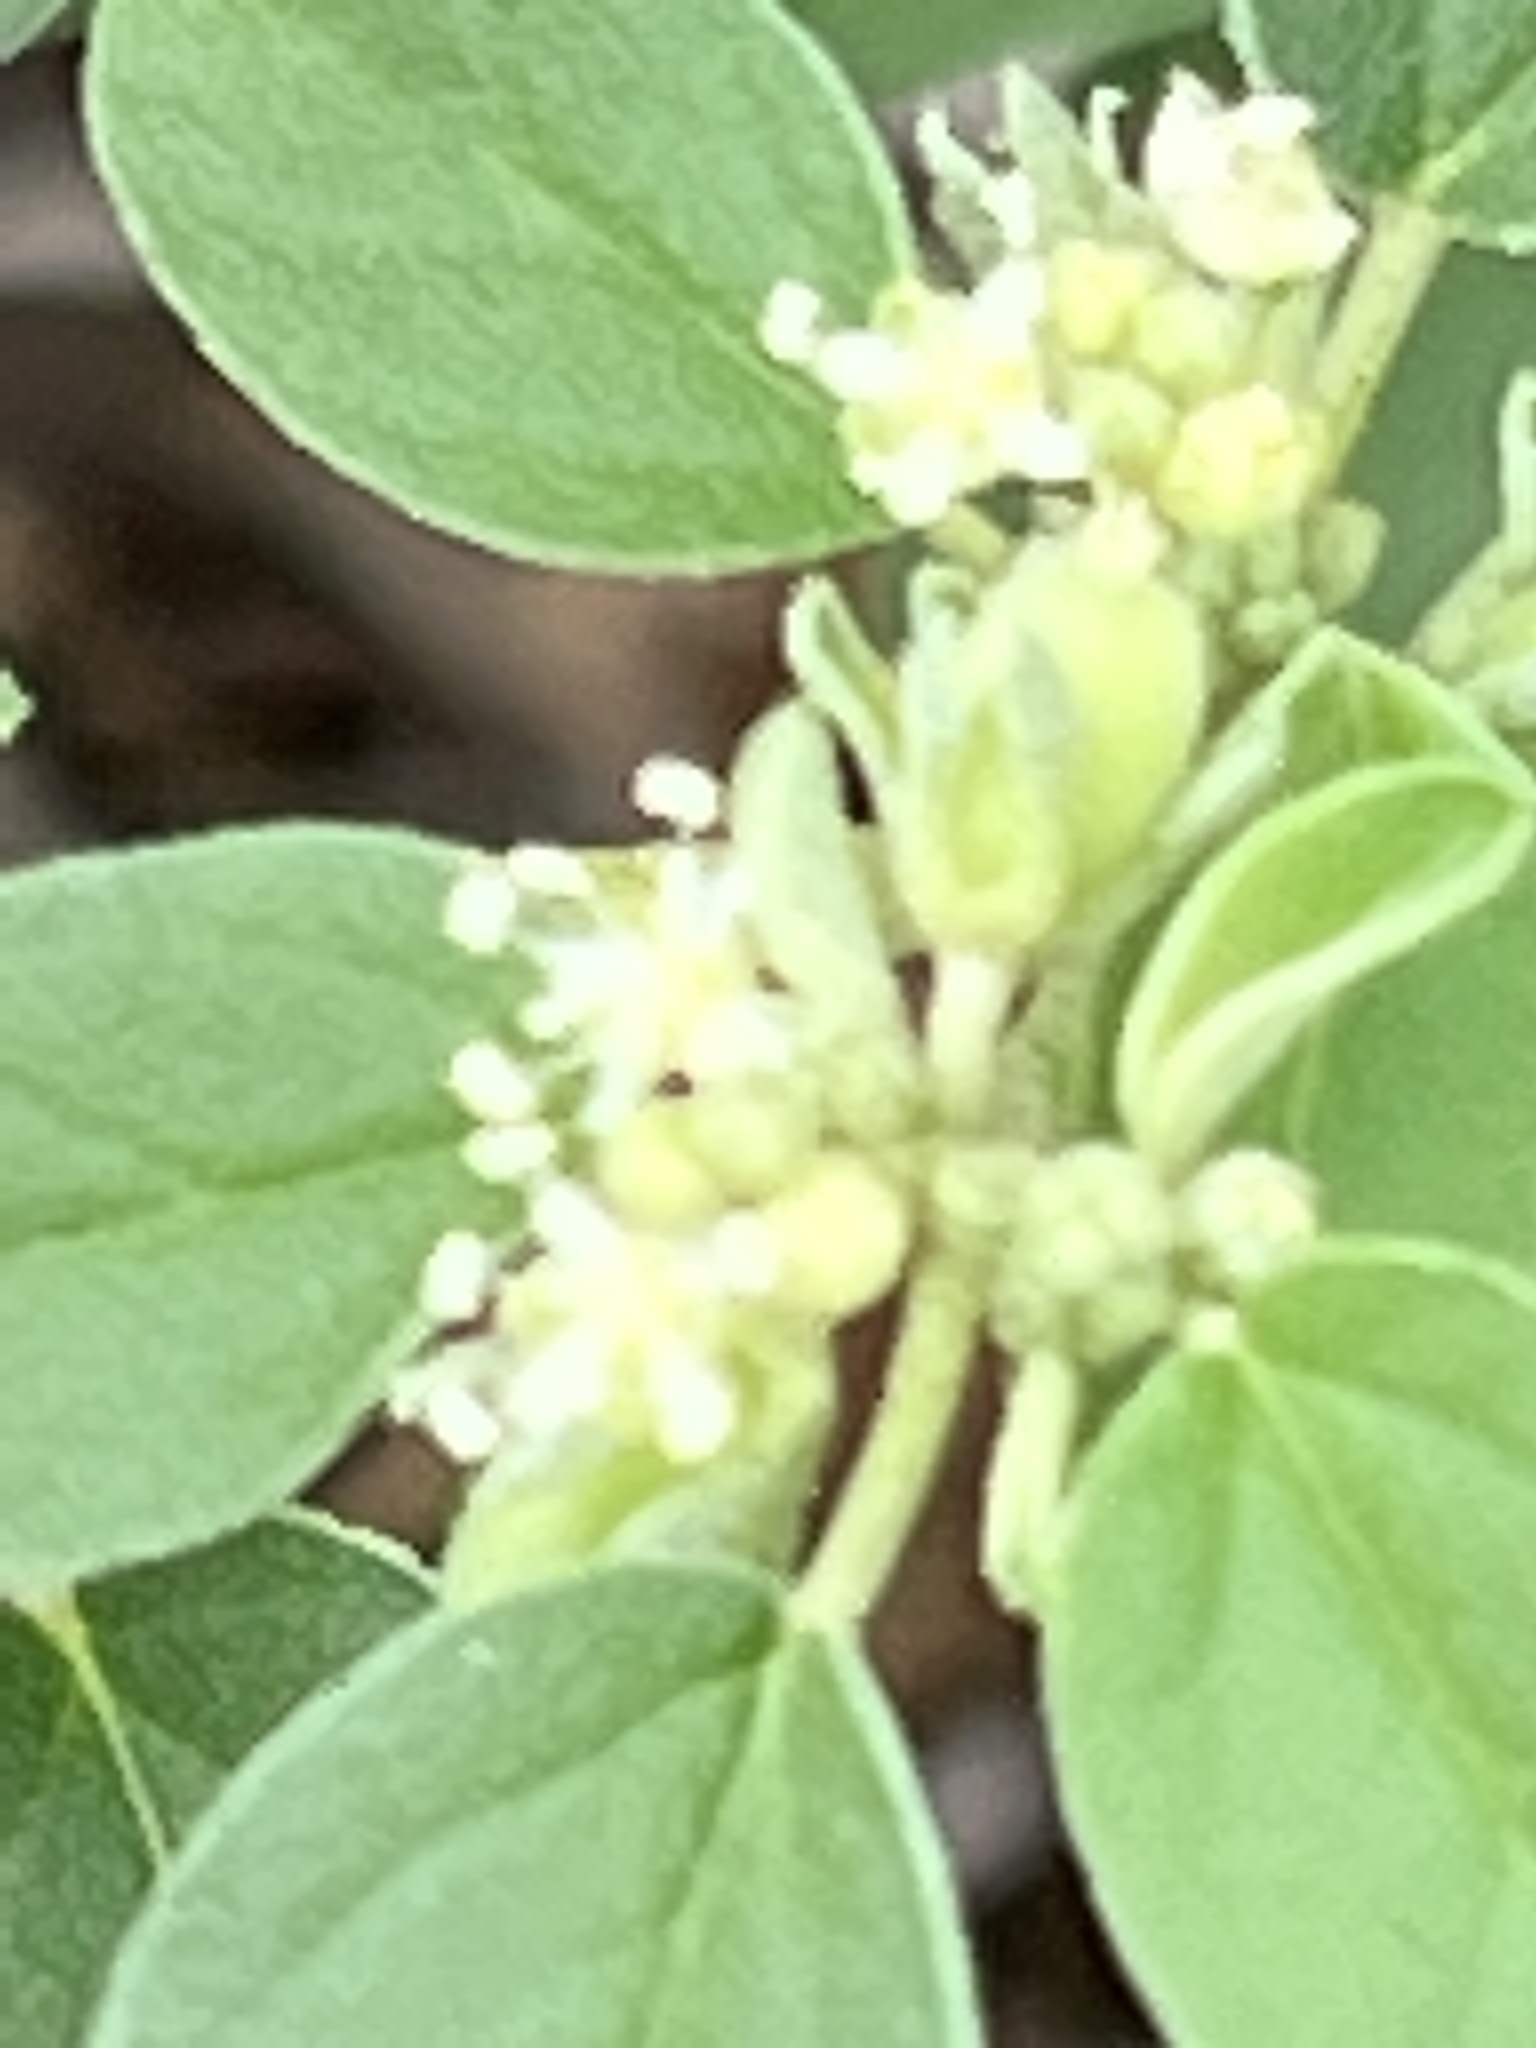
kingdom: Plantae
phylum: Tracheophyta
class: Magnoliopsida
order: Malpighiales
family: Euphorbiaceae
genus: Croton
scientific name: Croton monanthogynus
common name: One-seed croton
